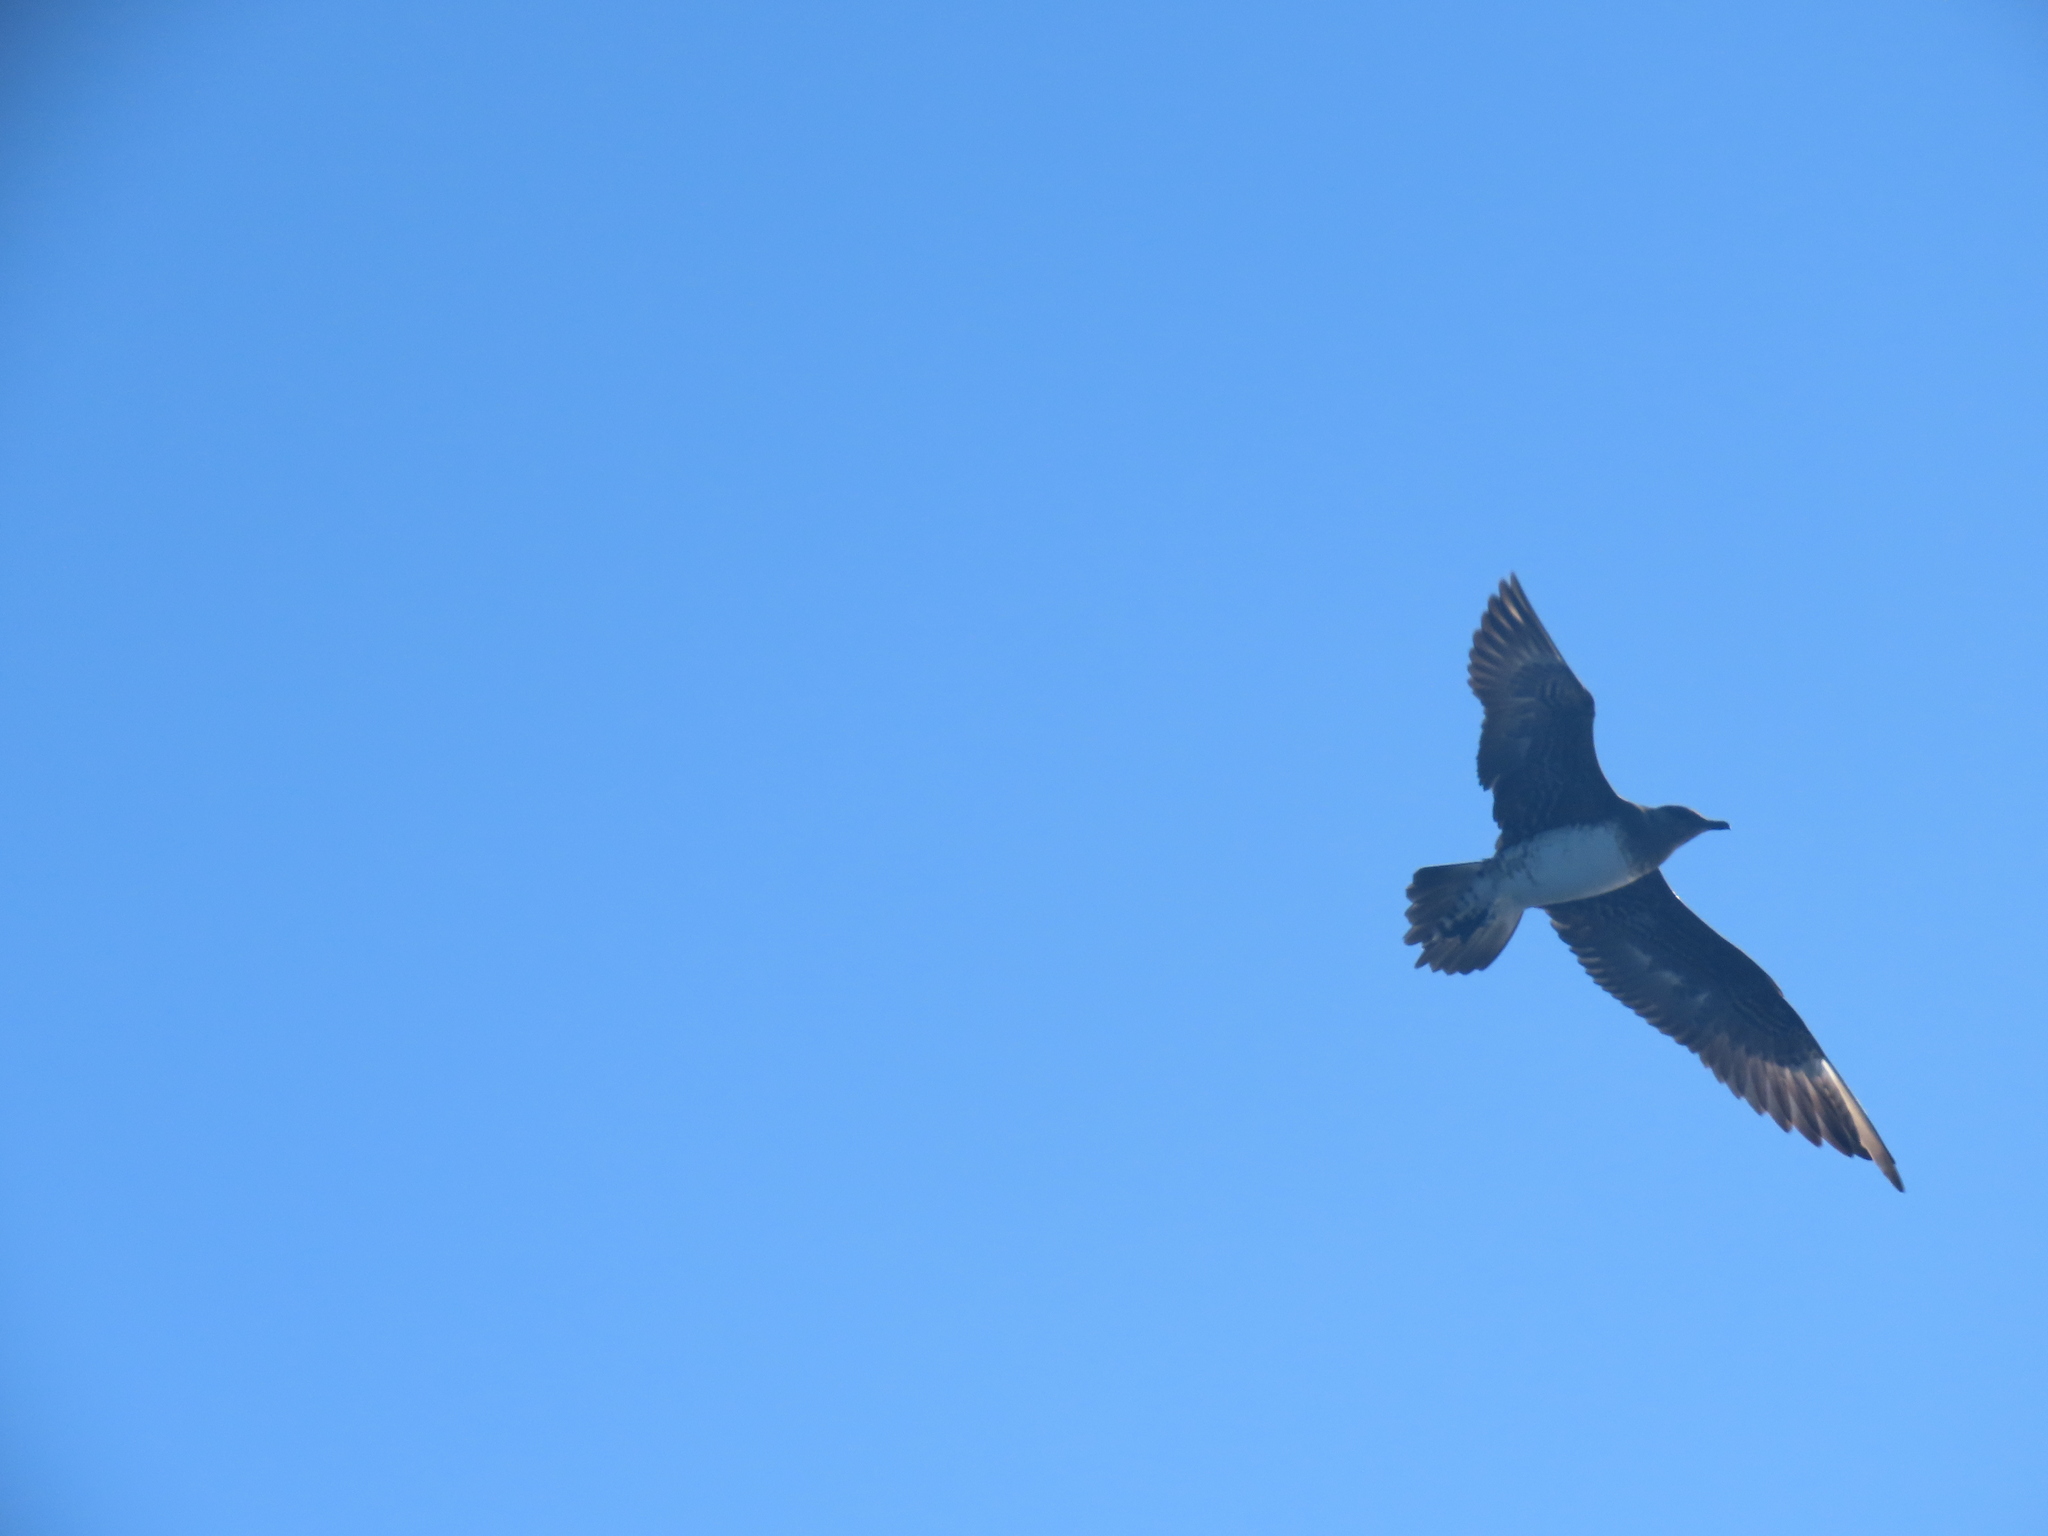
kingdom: Animalia
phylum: Chordata
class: Aves
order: Charadriiformes
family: Stercorariidae
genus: Stercorarius
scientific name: Stercorarius longicaudus
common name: Long-tailed jaeger
